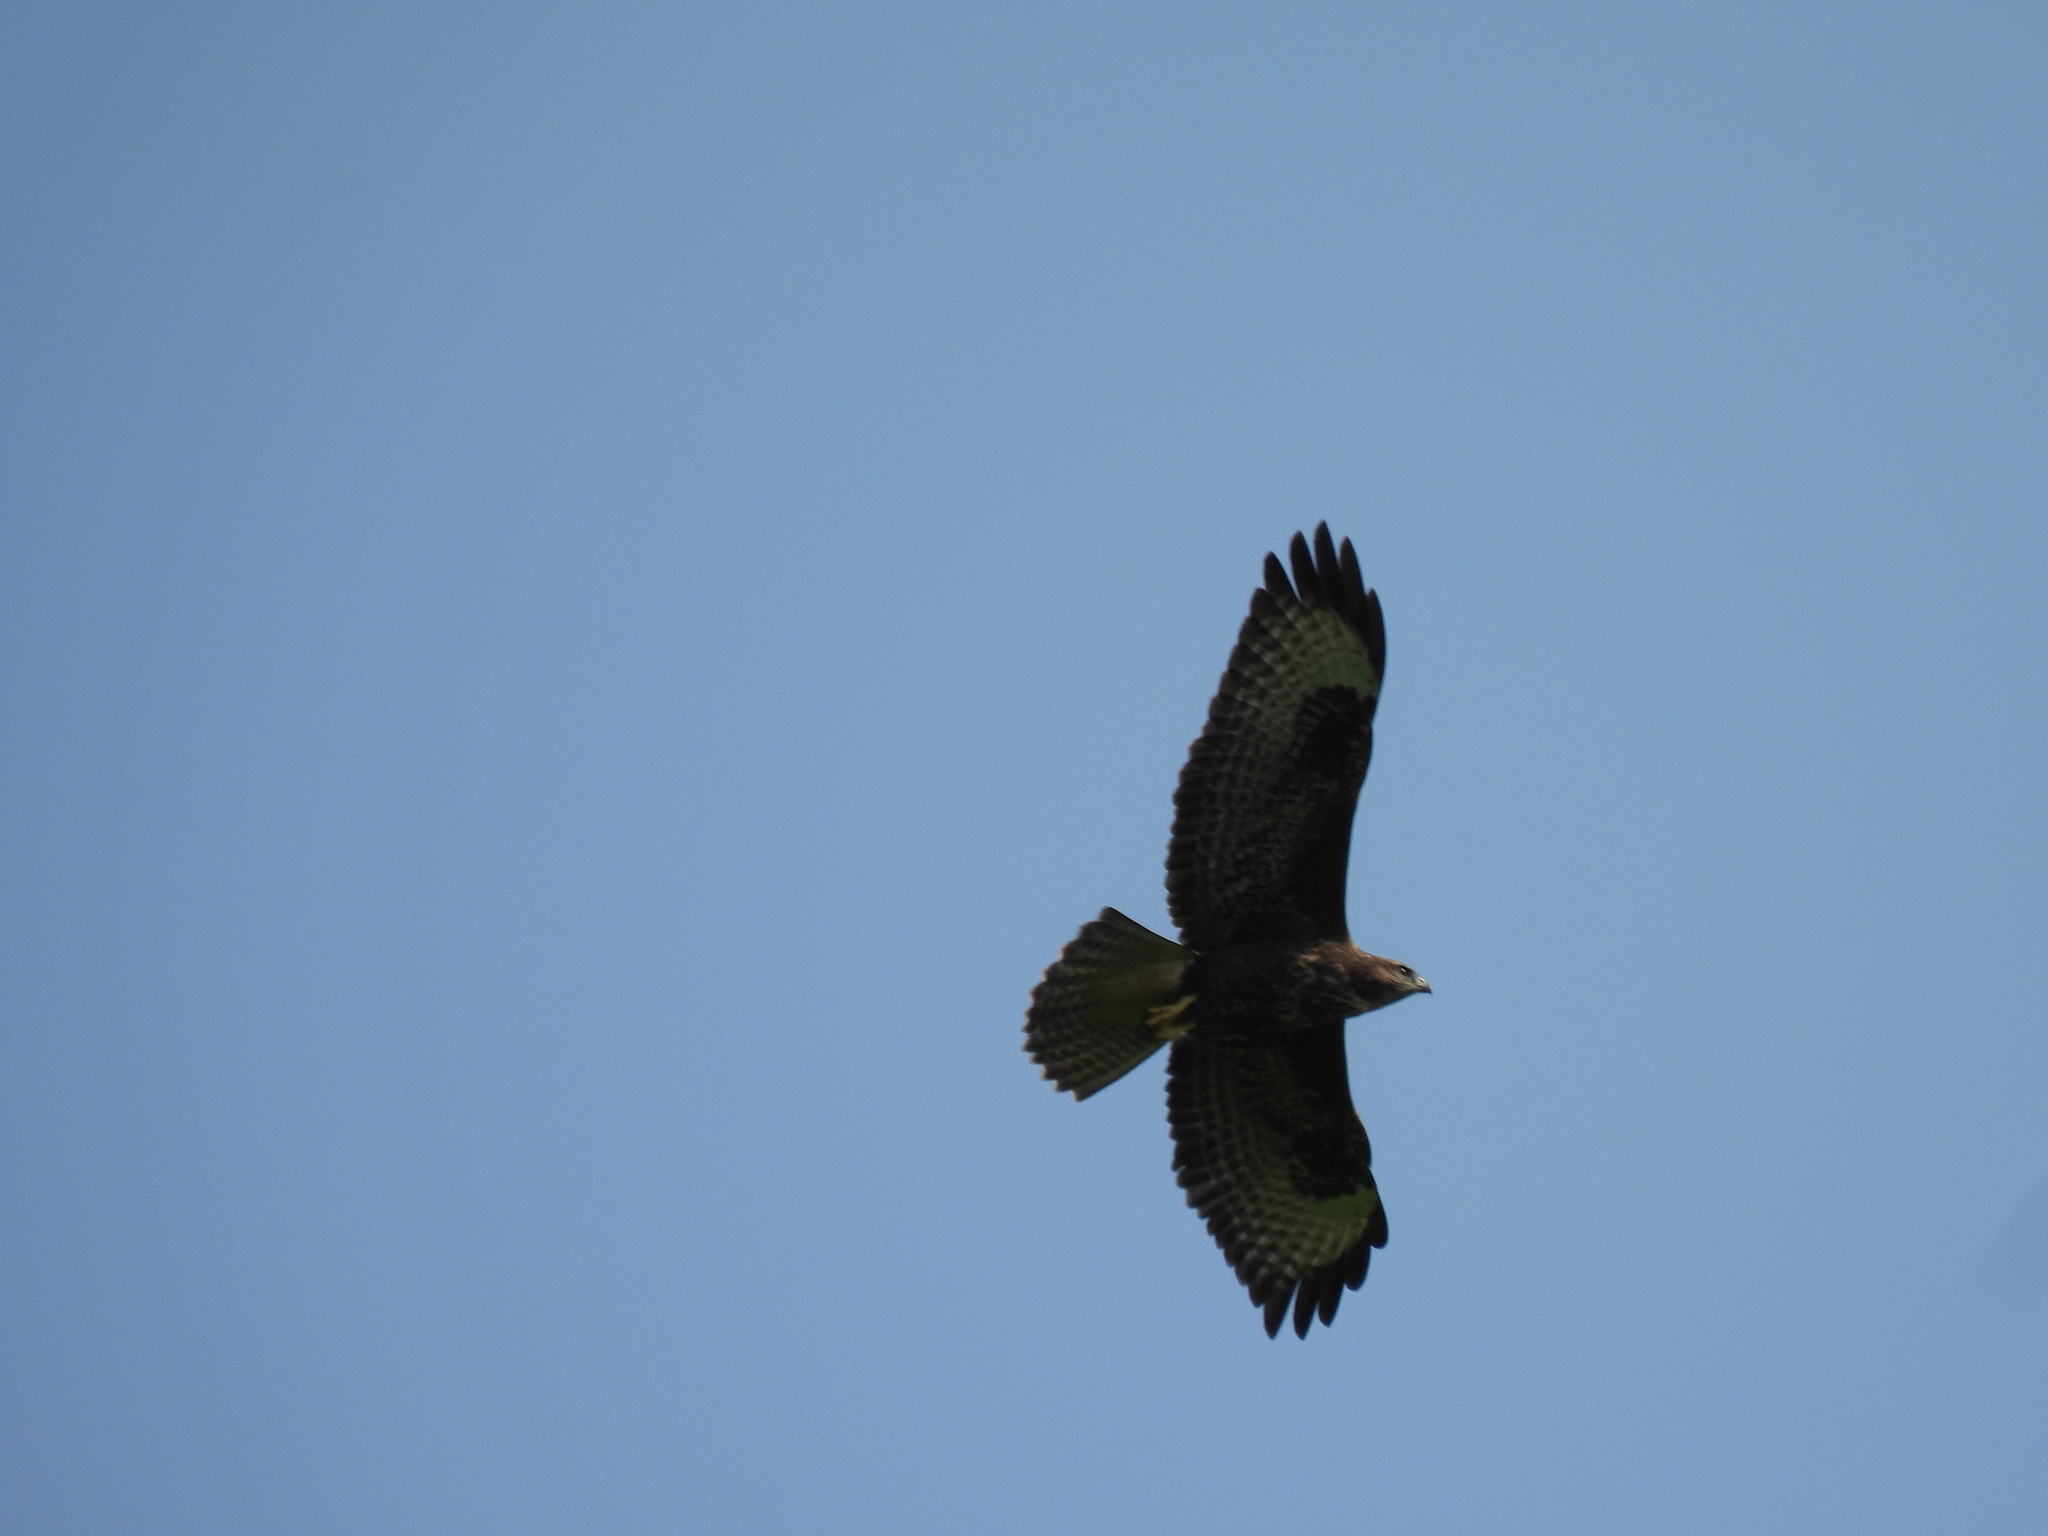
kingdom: Animalia
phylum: Chordata
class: Aves
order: Accipitriformes
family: Accipitridae
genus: Buteo
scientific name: Buteo buteo
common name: Common buzzard
